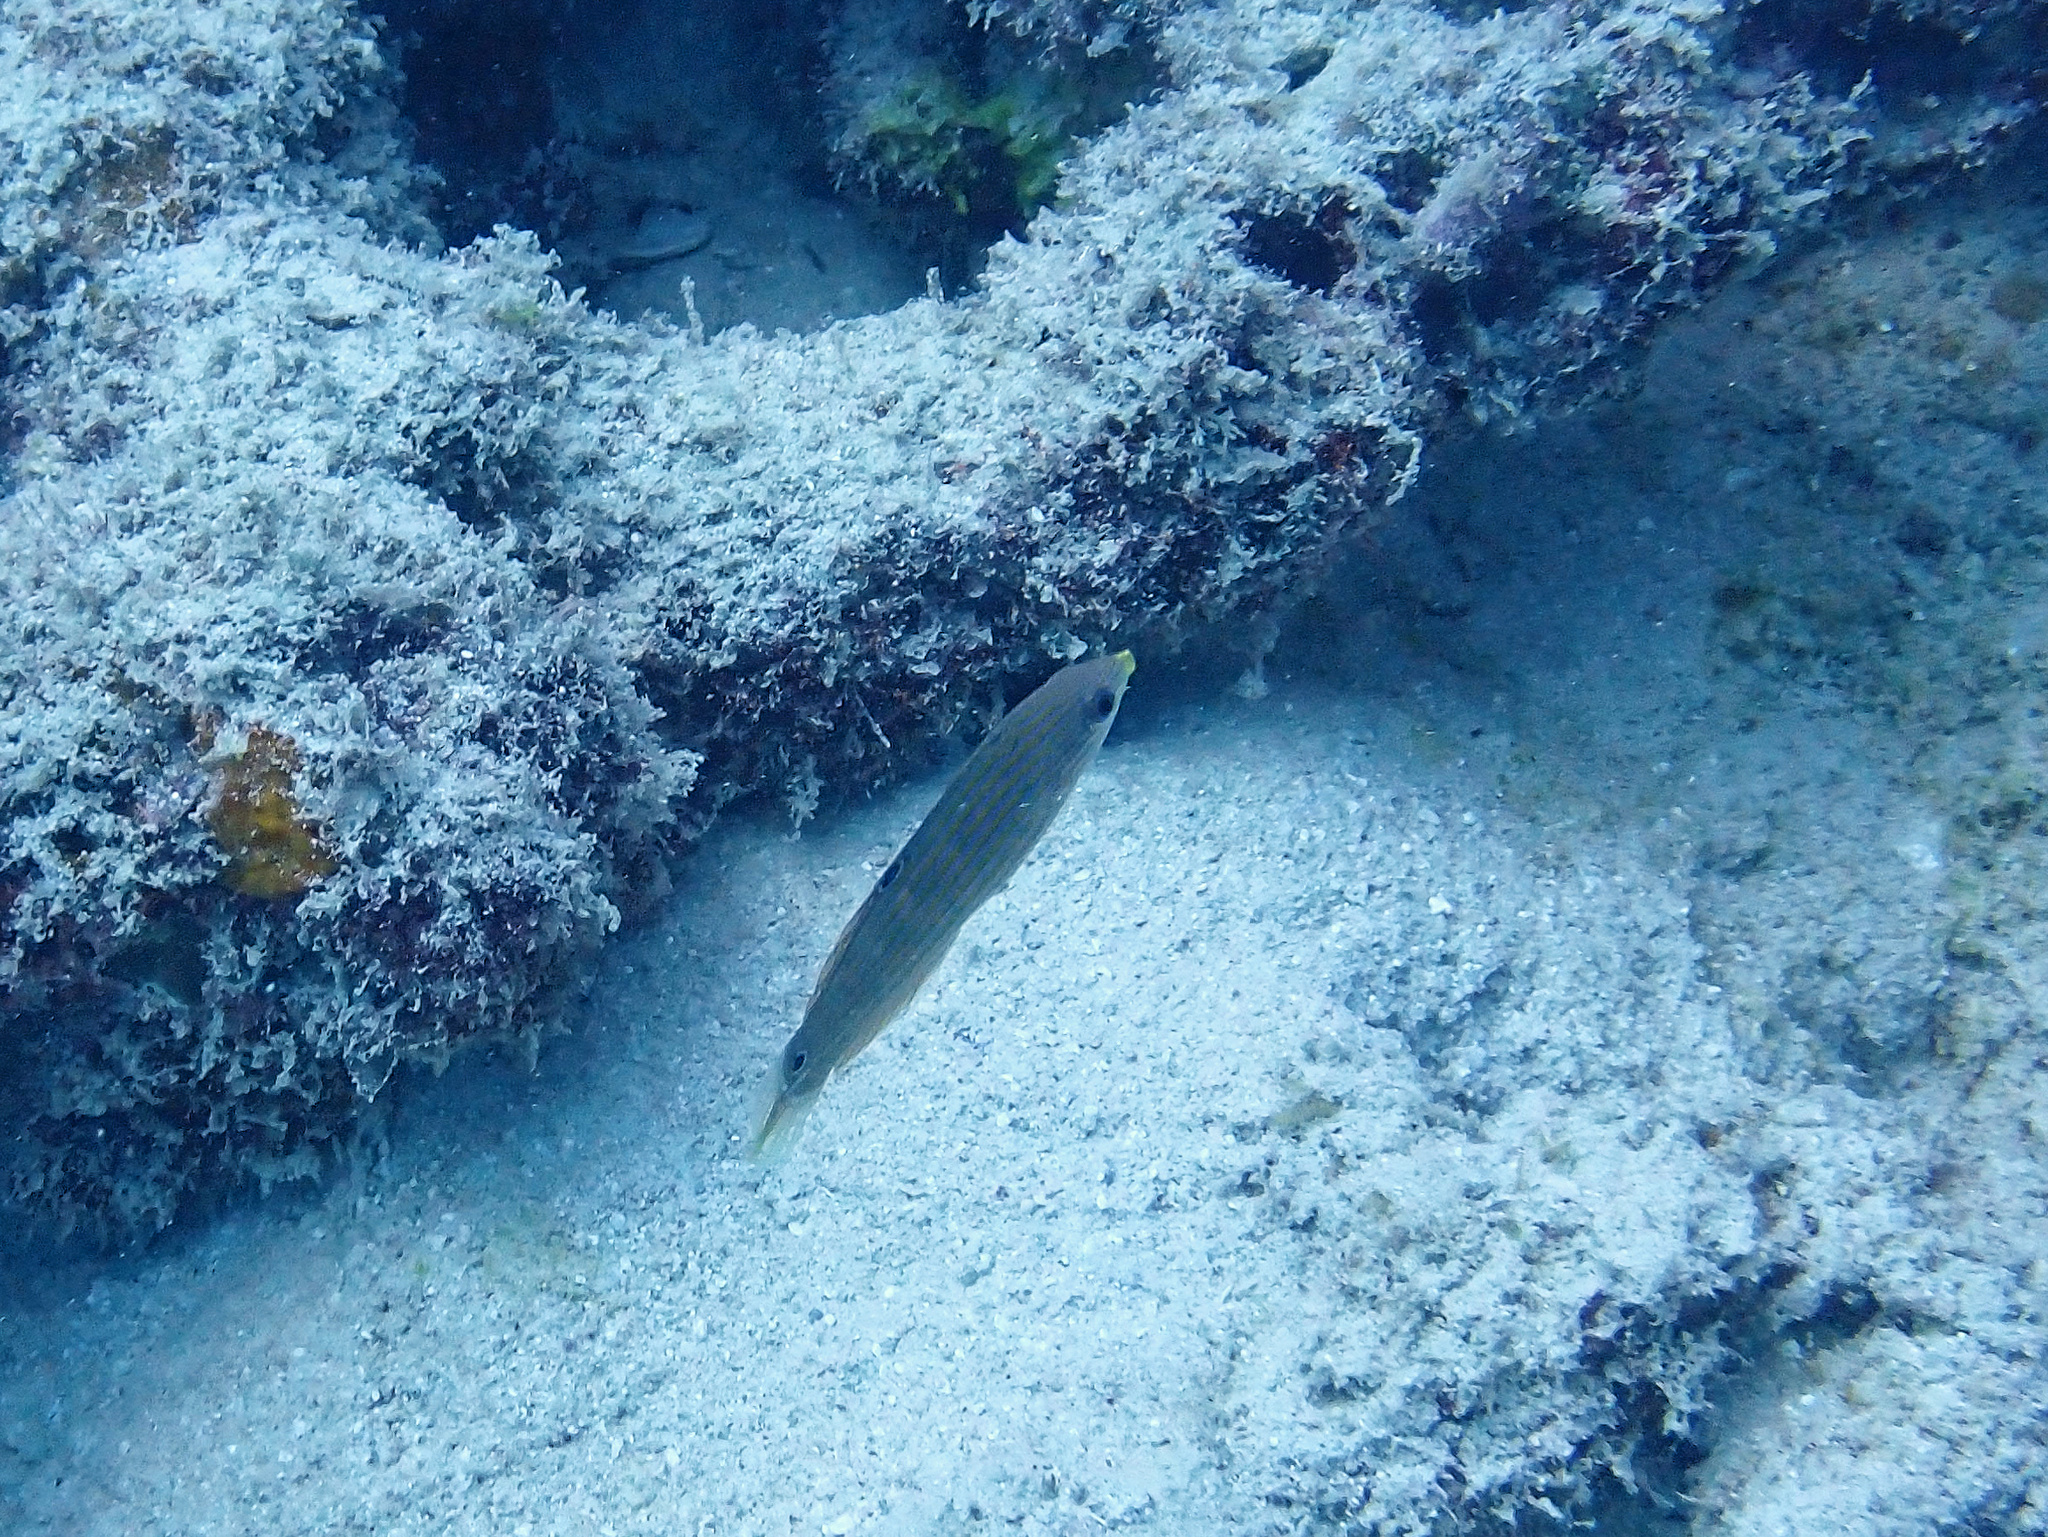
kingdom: Animalia
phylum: Chordata
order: Perciformes
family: Labridae
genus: Halichoeres
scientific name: Halichoeres melanurus
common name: Hoeven's wrasse
